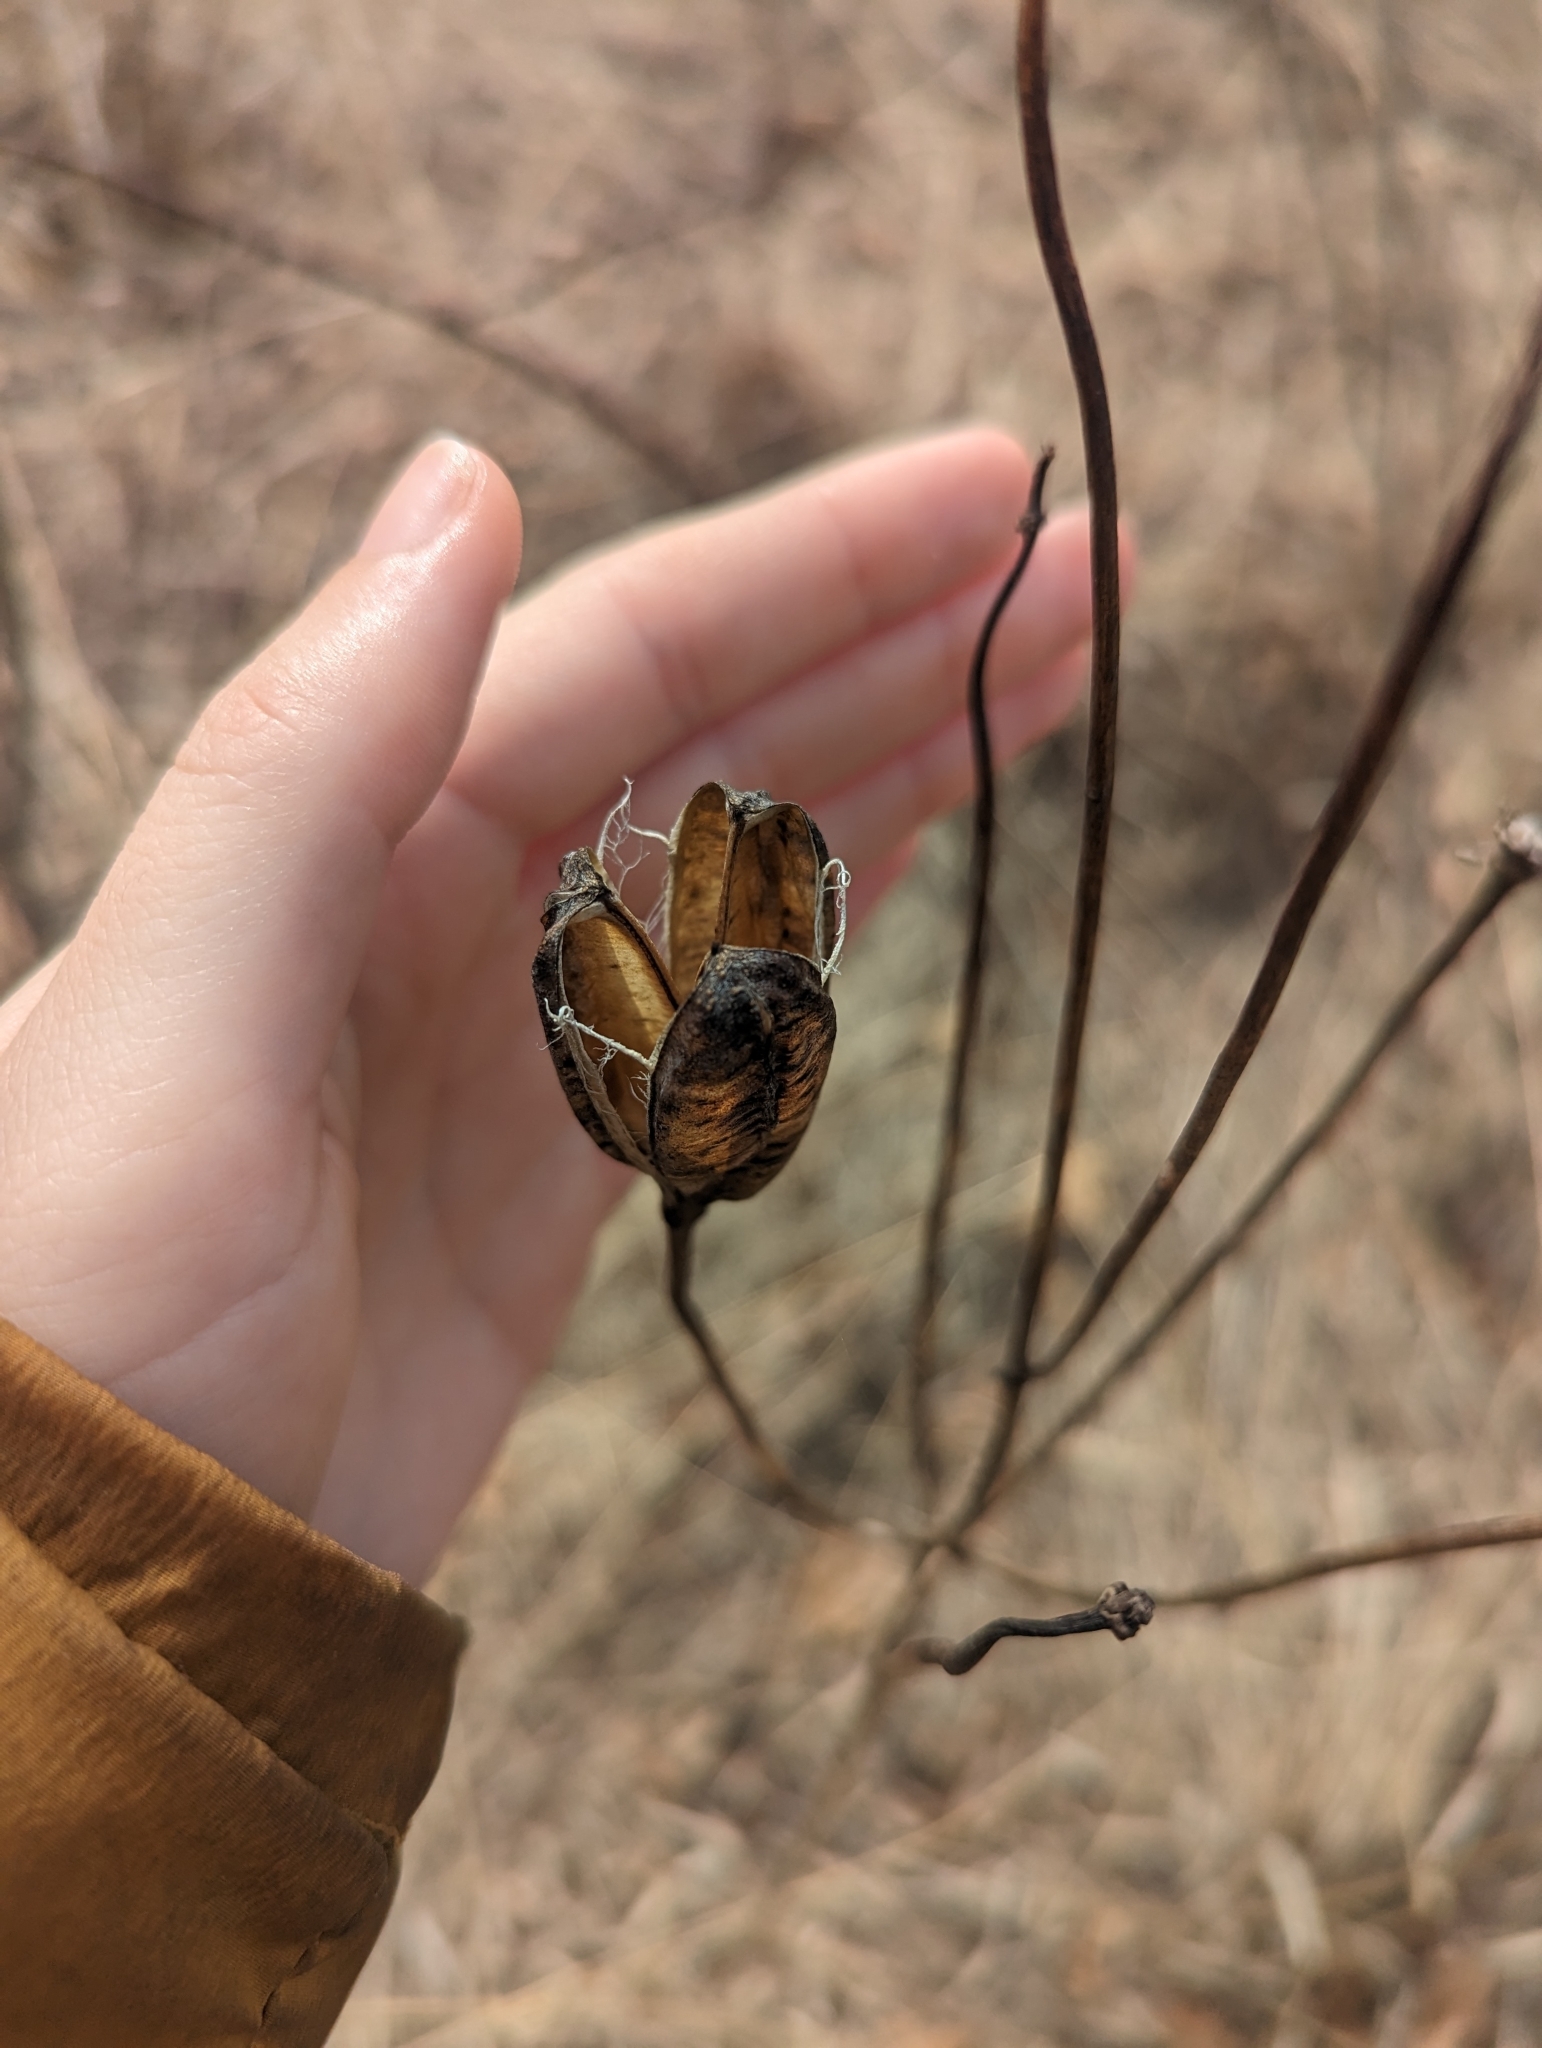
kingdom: Plantae
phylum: Tracheophyta
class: Liliopsida
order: Liliales
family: Liliaceae
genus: Lilium
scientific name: Lilium michiganense
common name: Michigan lily
